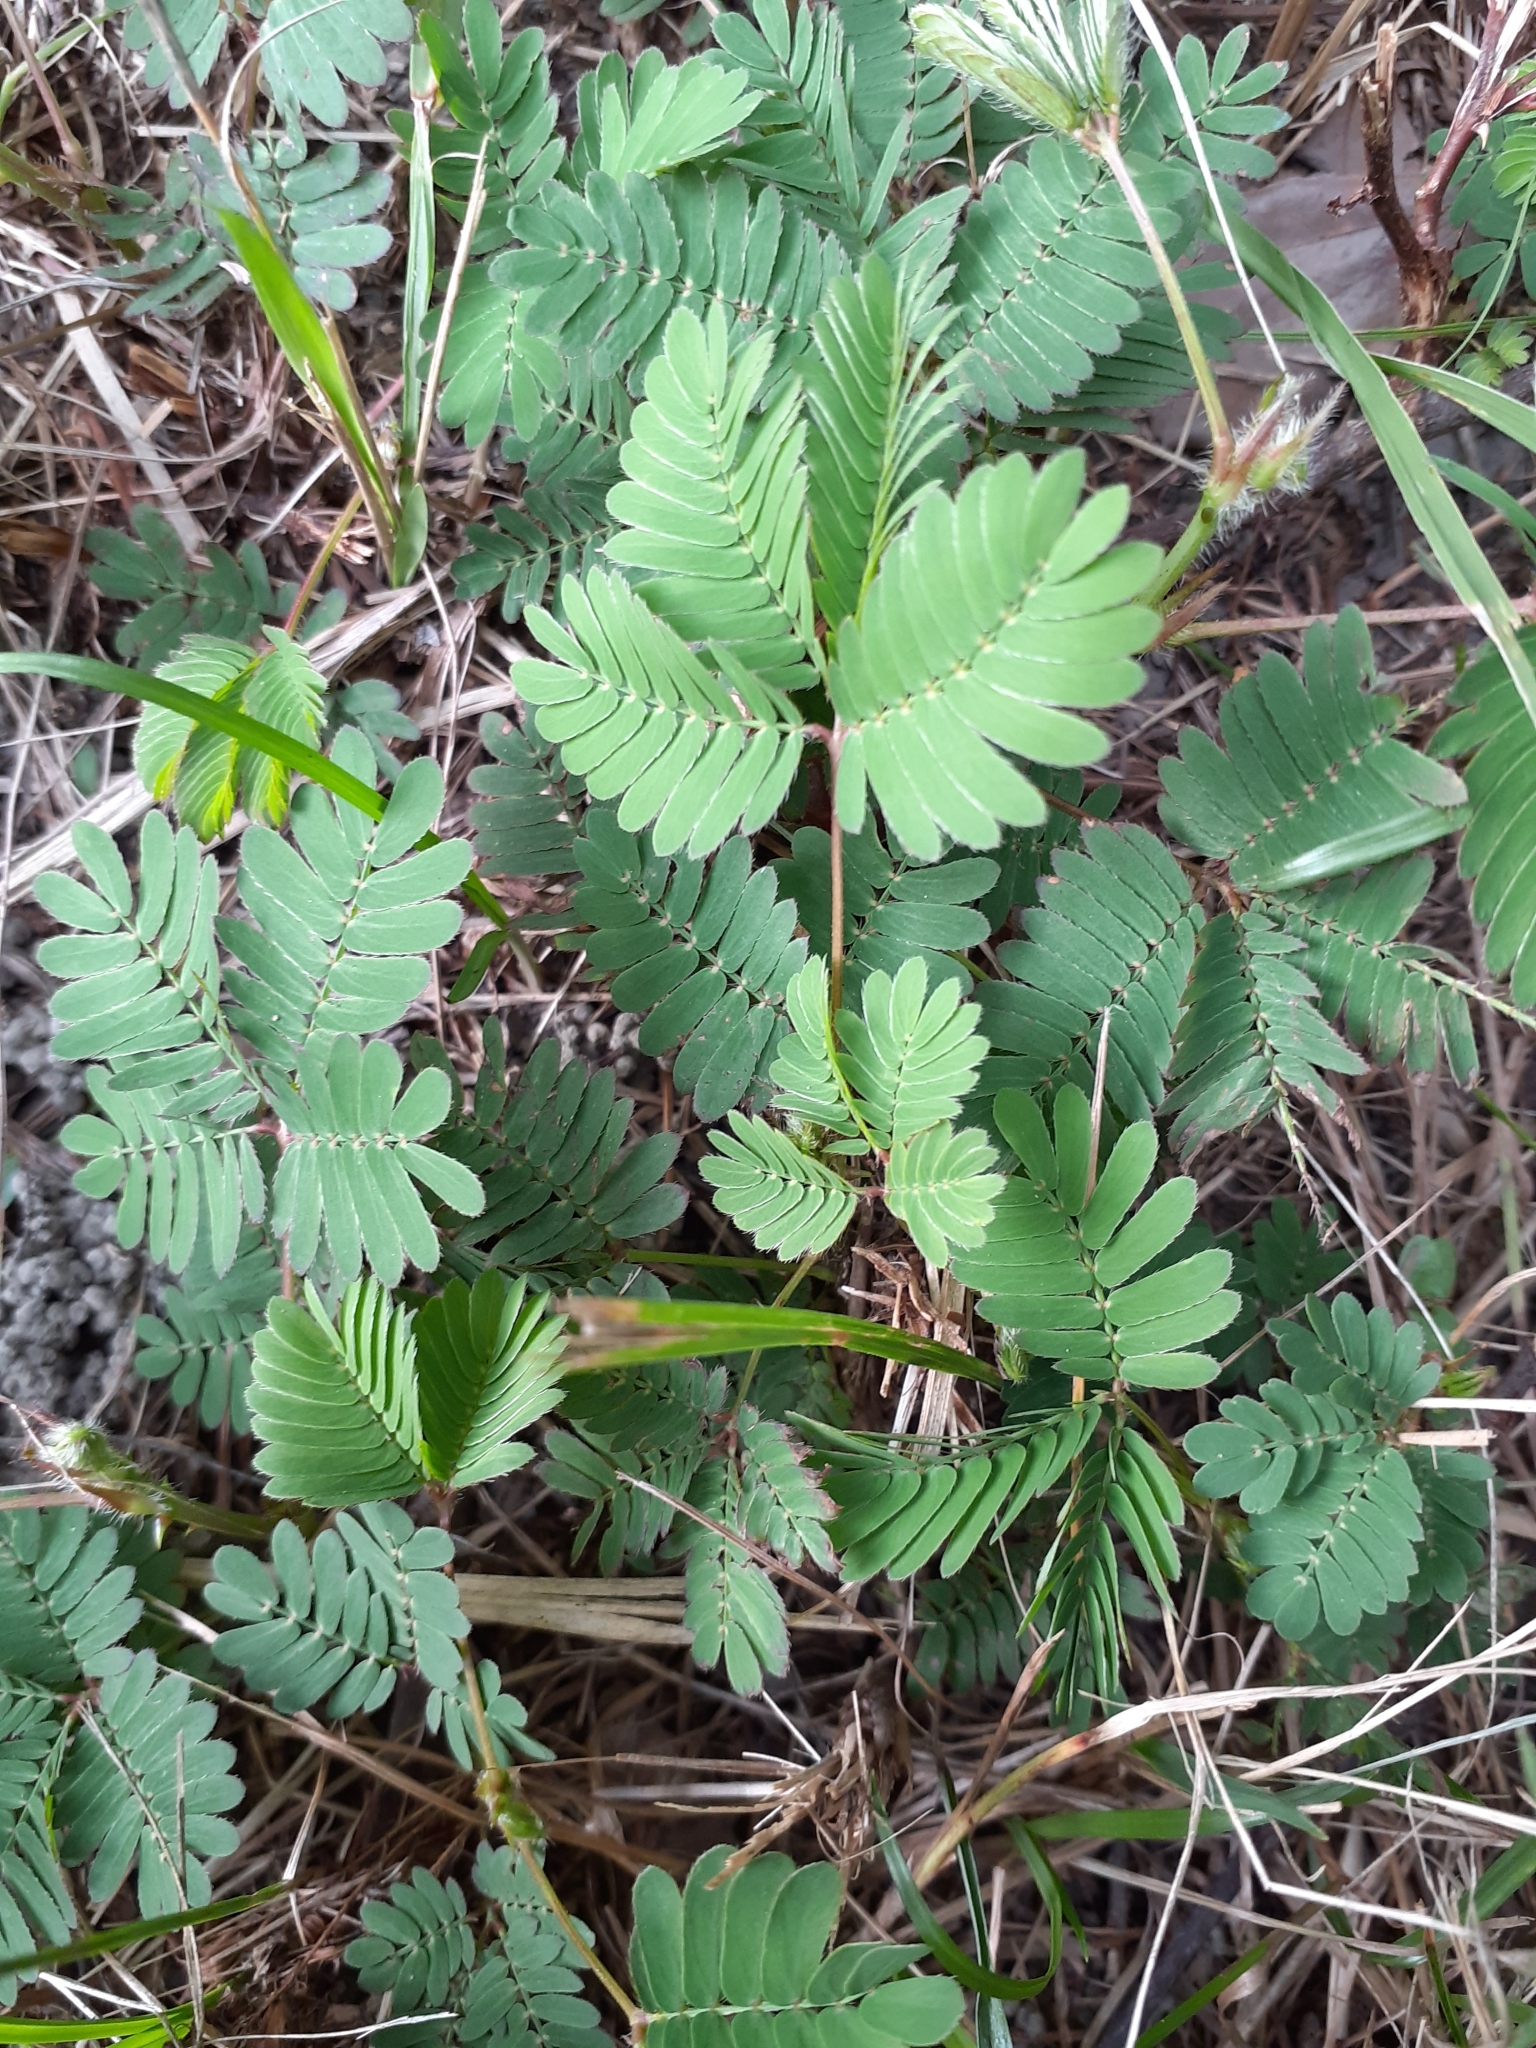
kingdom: Plantae
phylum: Tracheophyta
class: Magnoliopsida
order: Fabales
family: Fabaceae
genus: Mimosa
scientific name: Mimosa pudica
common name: Sensitive plant
